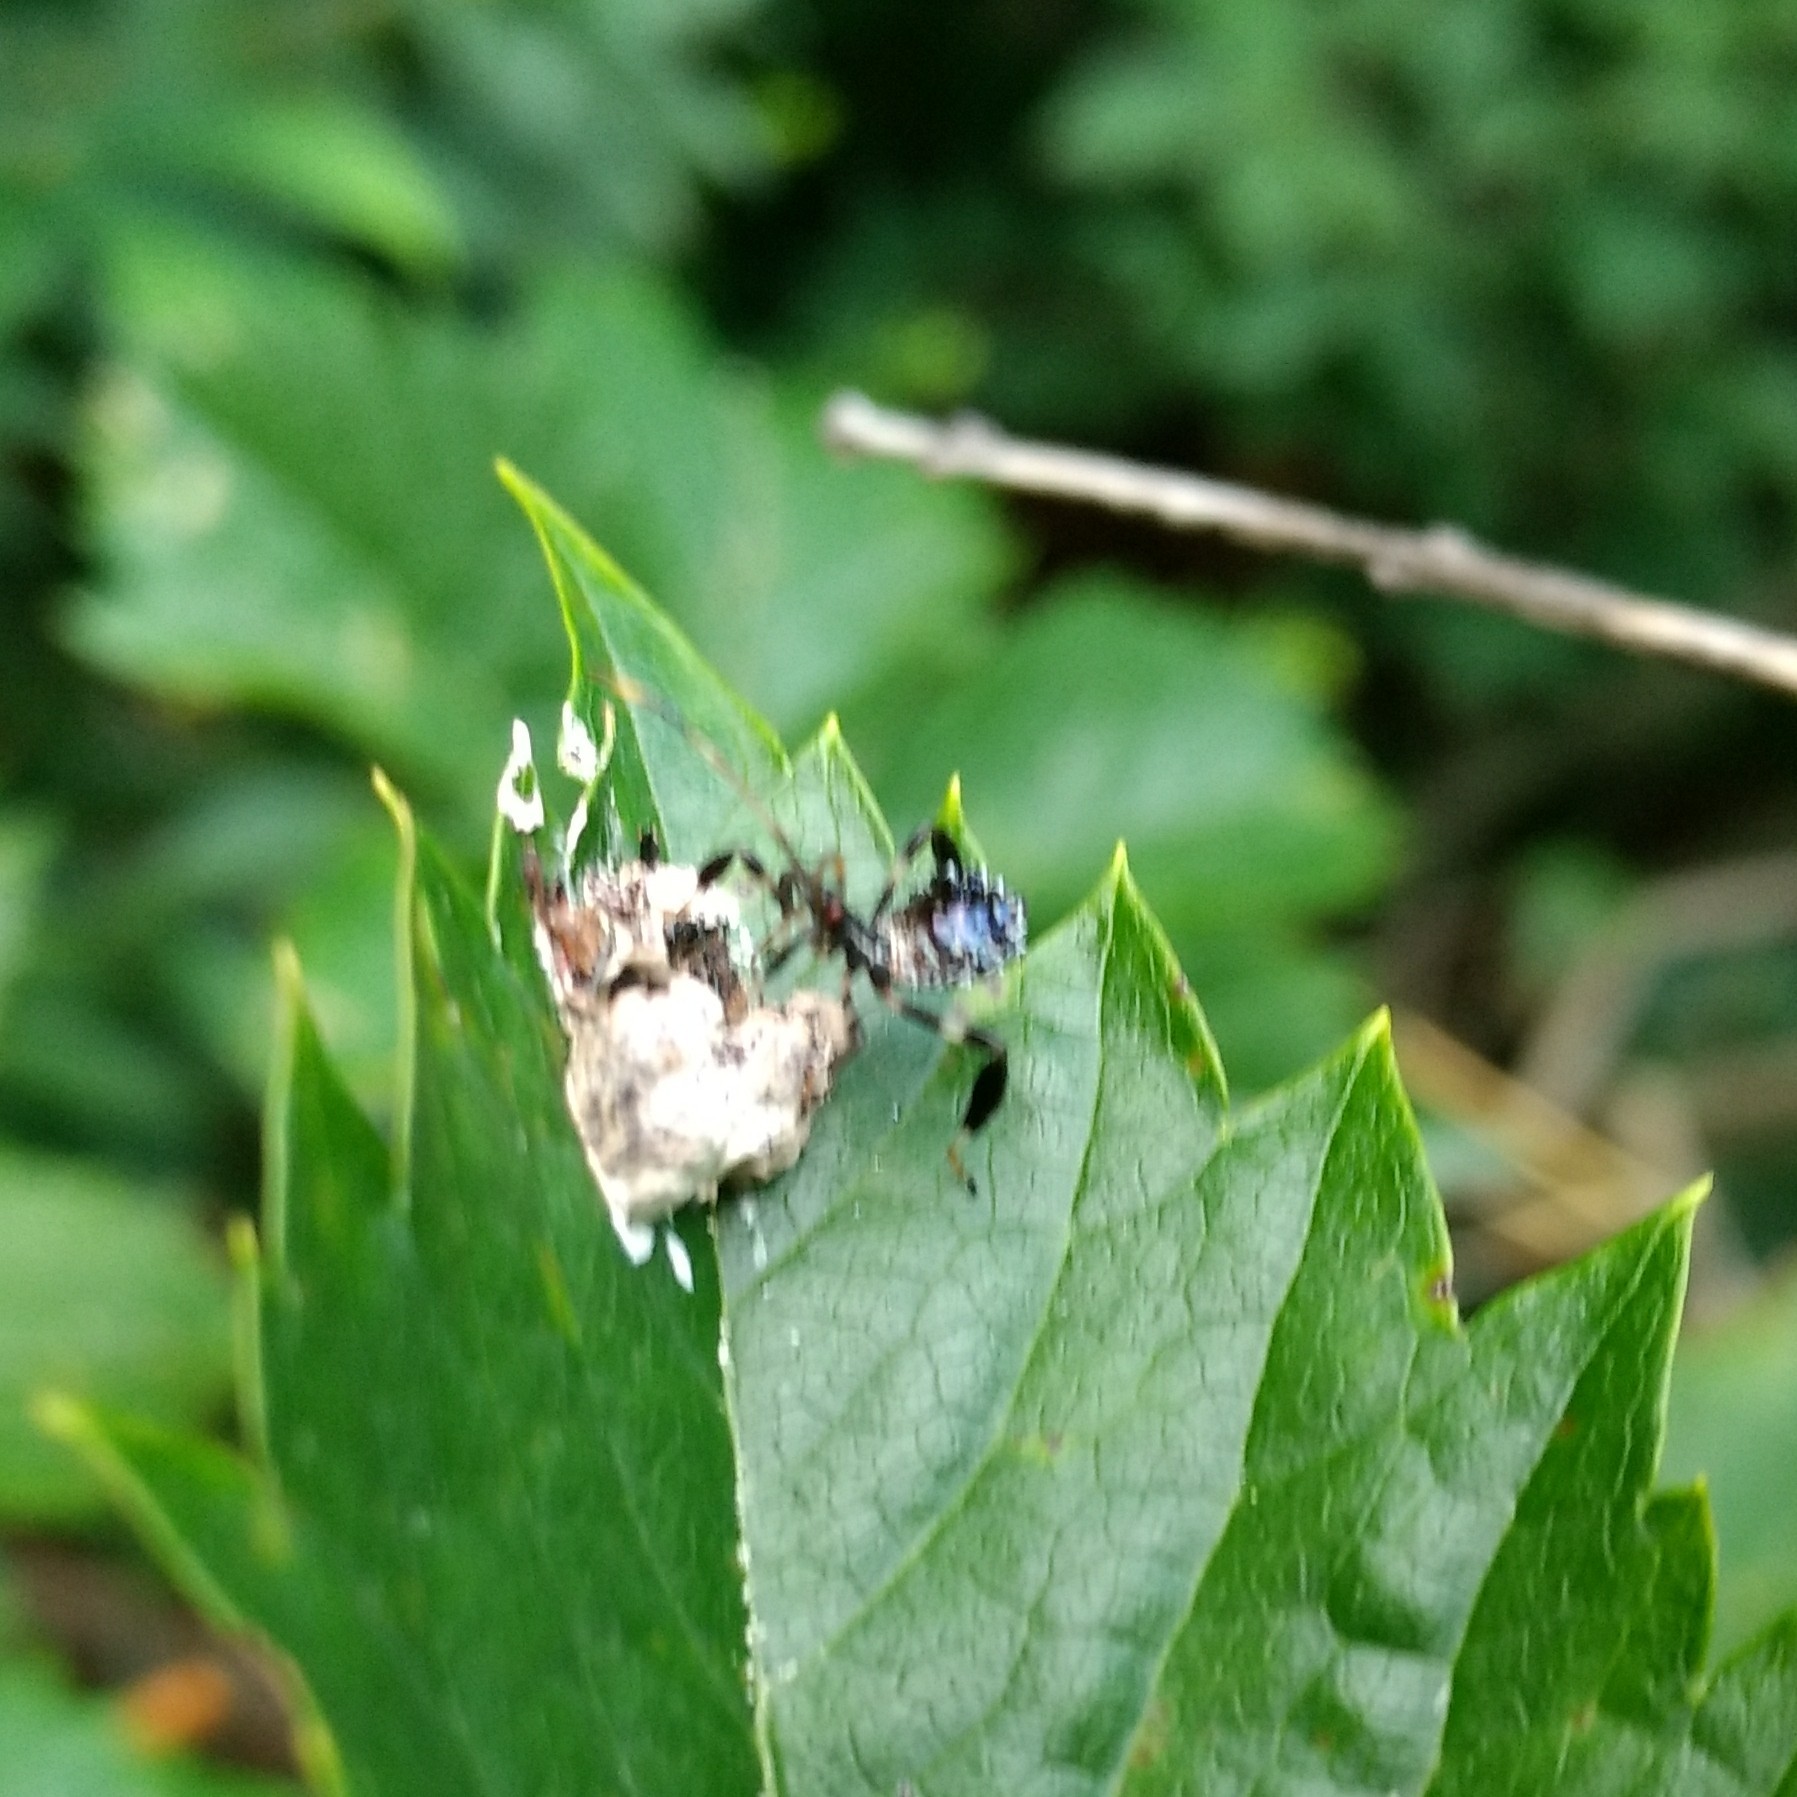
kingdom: Animalia
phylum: Arthropoda
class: Insecta
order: Hemiptera
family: Coreidae
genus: Acanthocephala
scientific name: Acanthocephala terminalis
